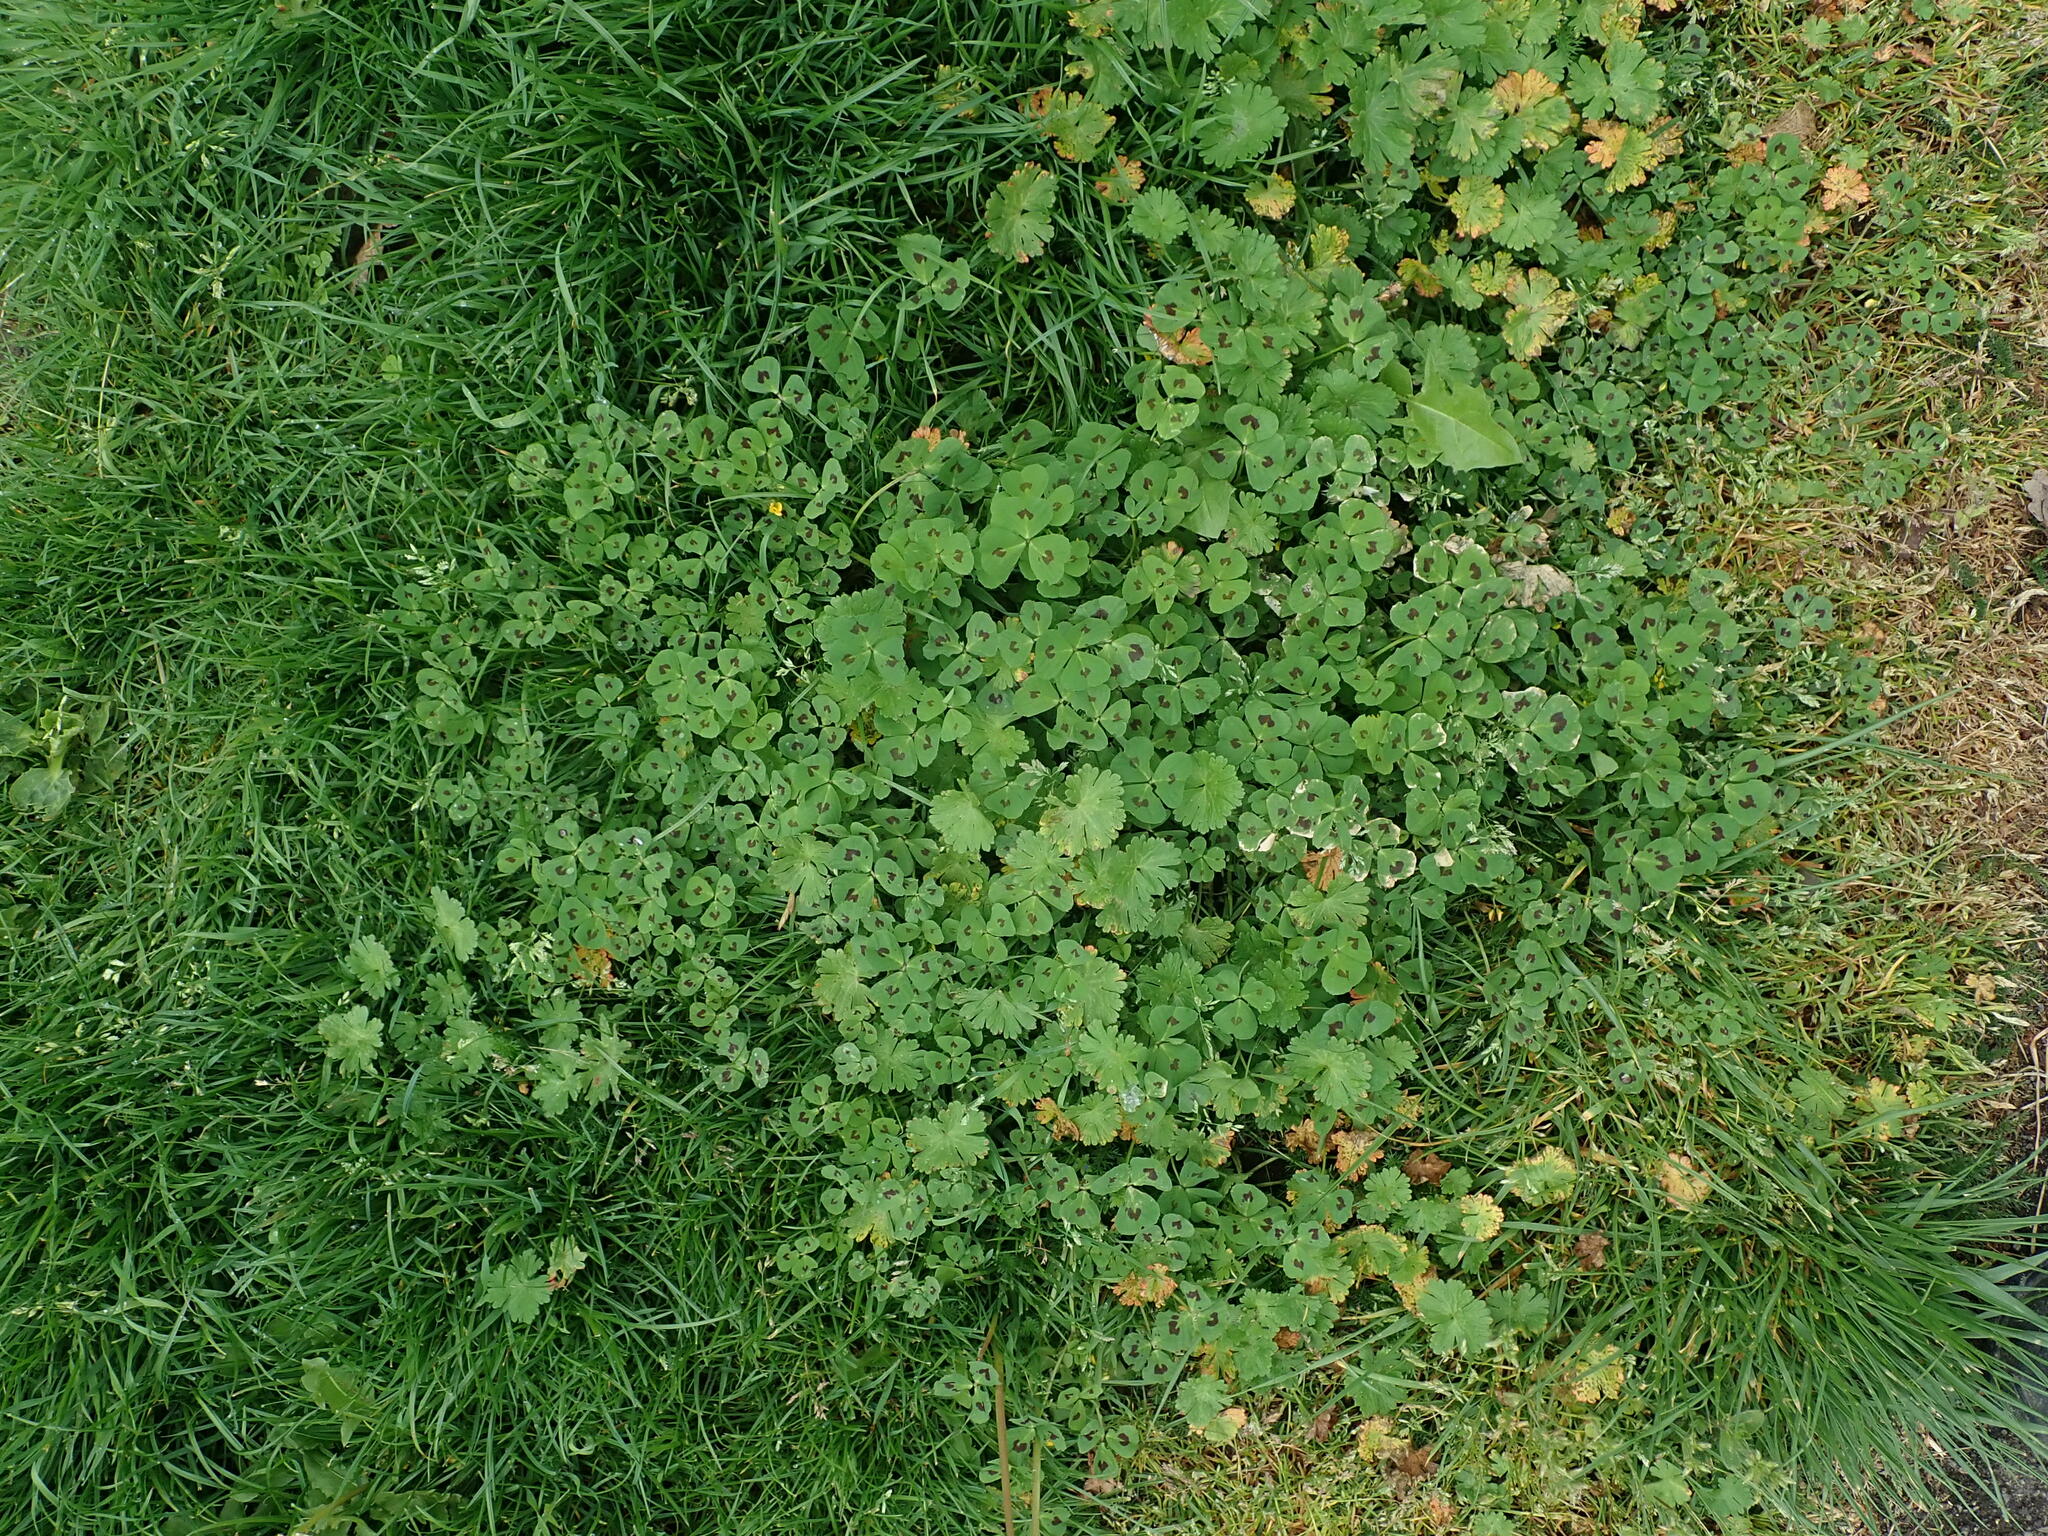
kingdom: Plantae
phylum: Tracheophyta
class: Magnoliopsida
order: Fabales
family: Fabaceae
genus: Medicago
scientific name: Medicago arabica
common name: Spotted medick
